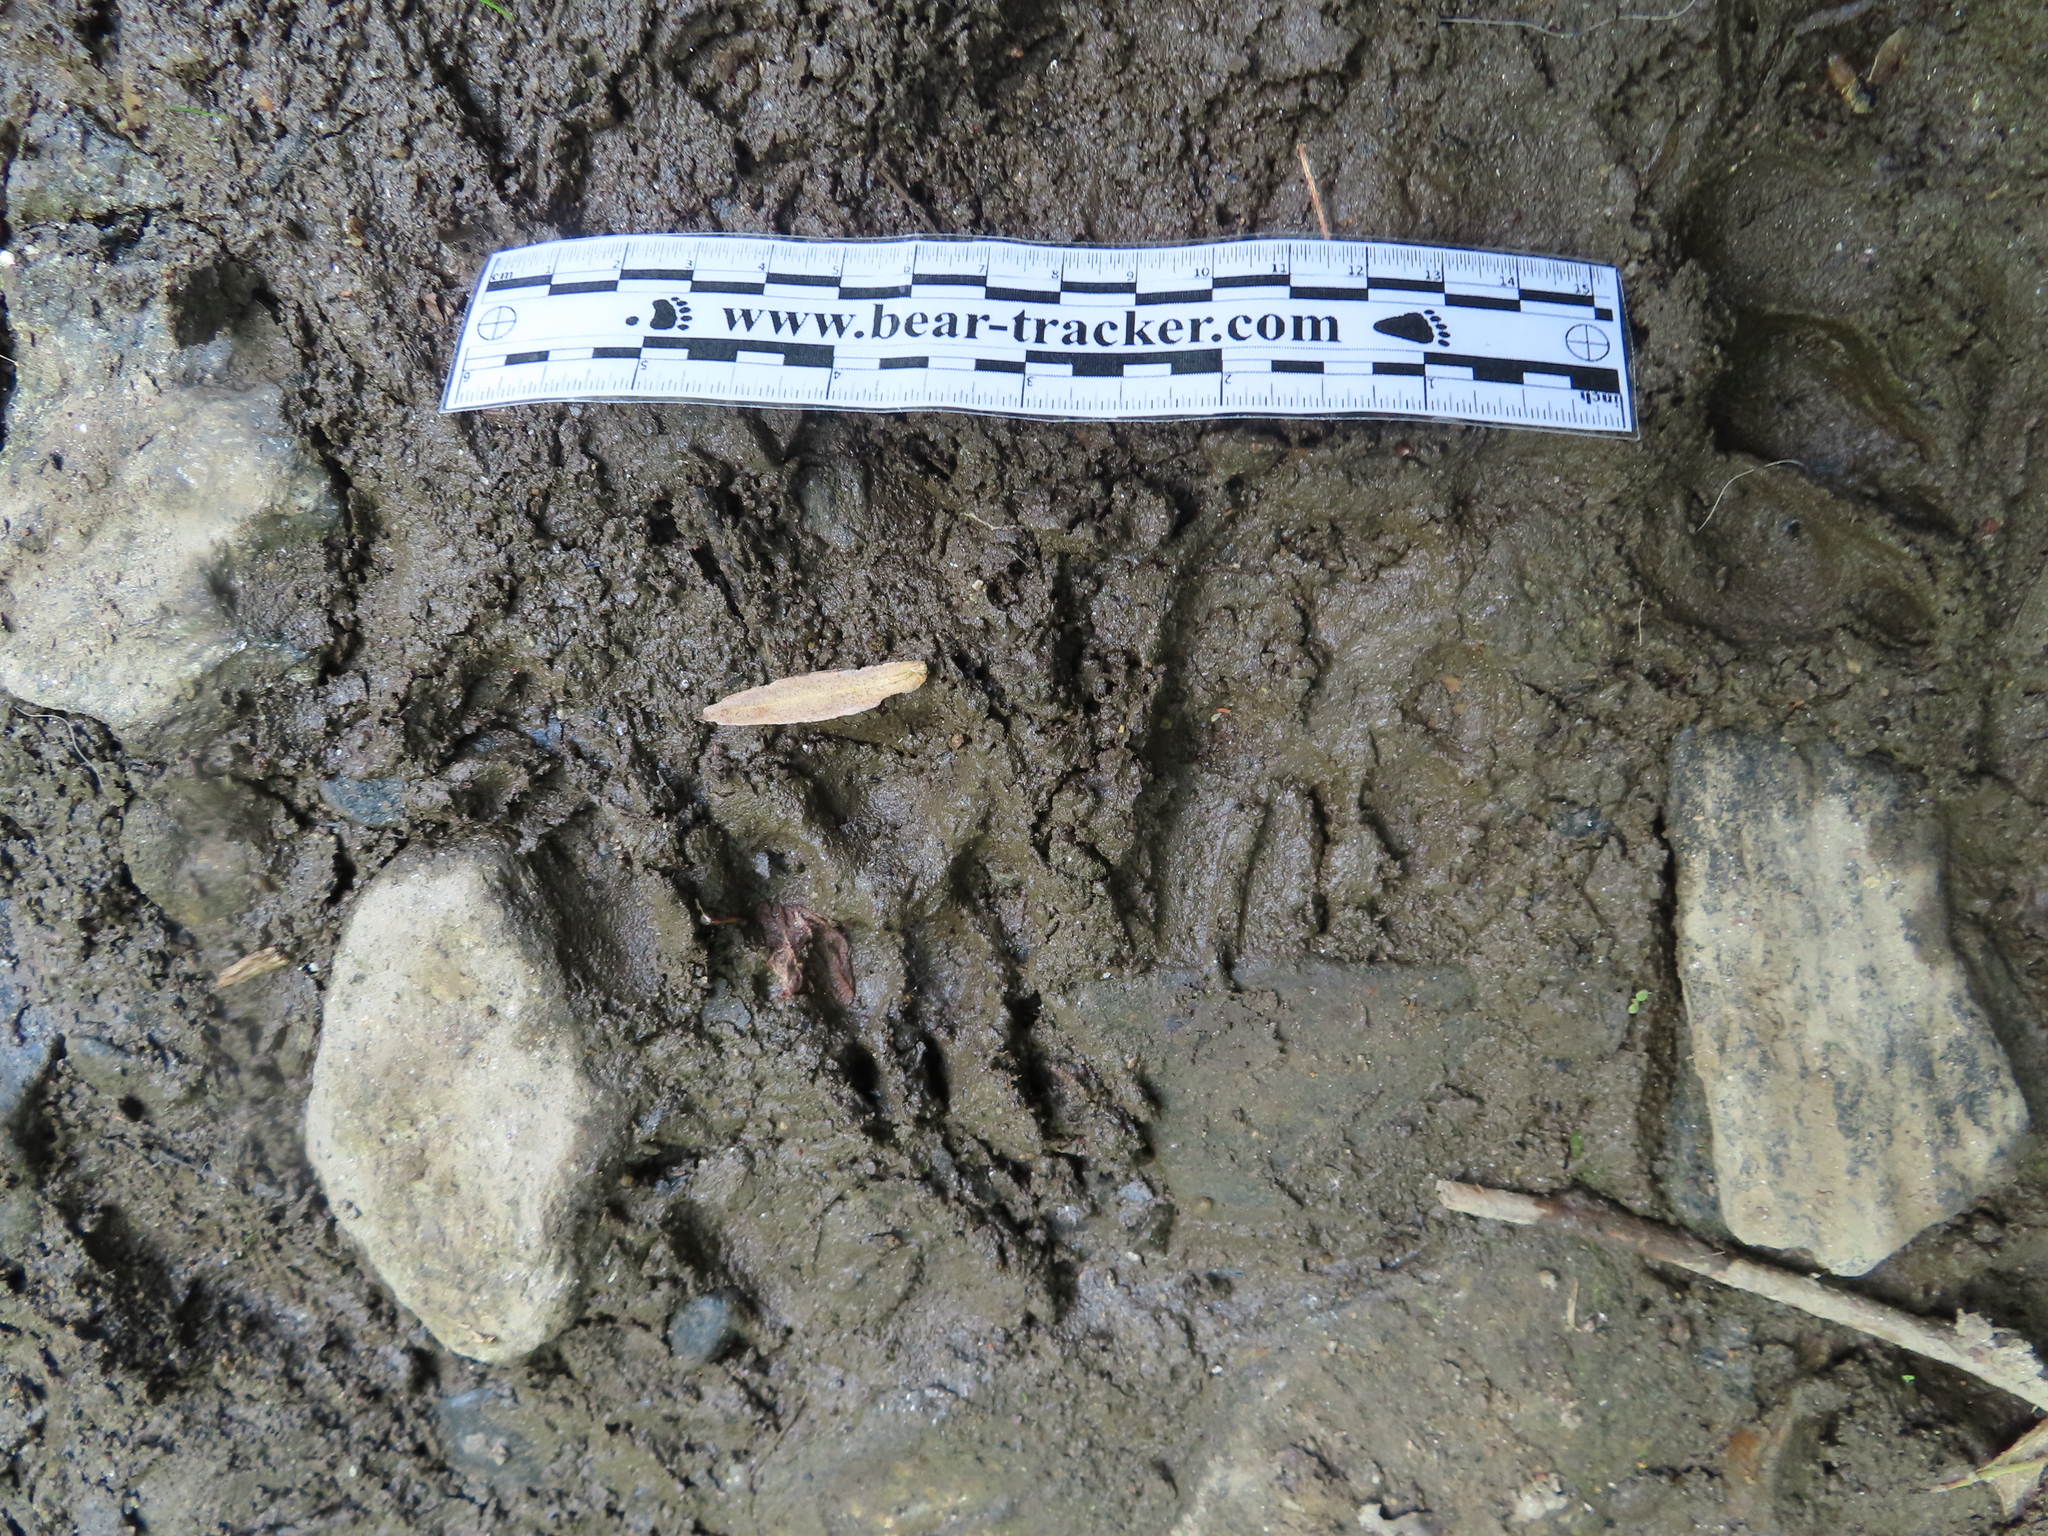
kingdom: Animalia
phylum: Chordata
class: Mammalia
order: Carnivora
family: Procyonidae
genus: Procyon
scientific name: Procyon lotor
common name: Raccoon
